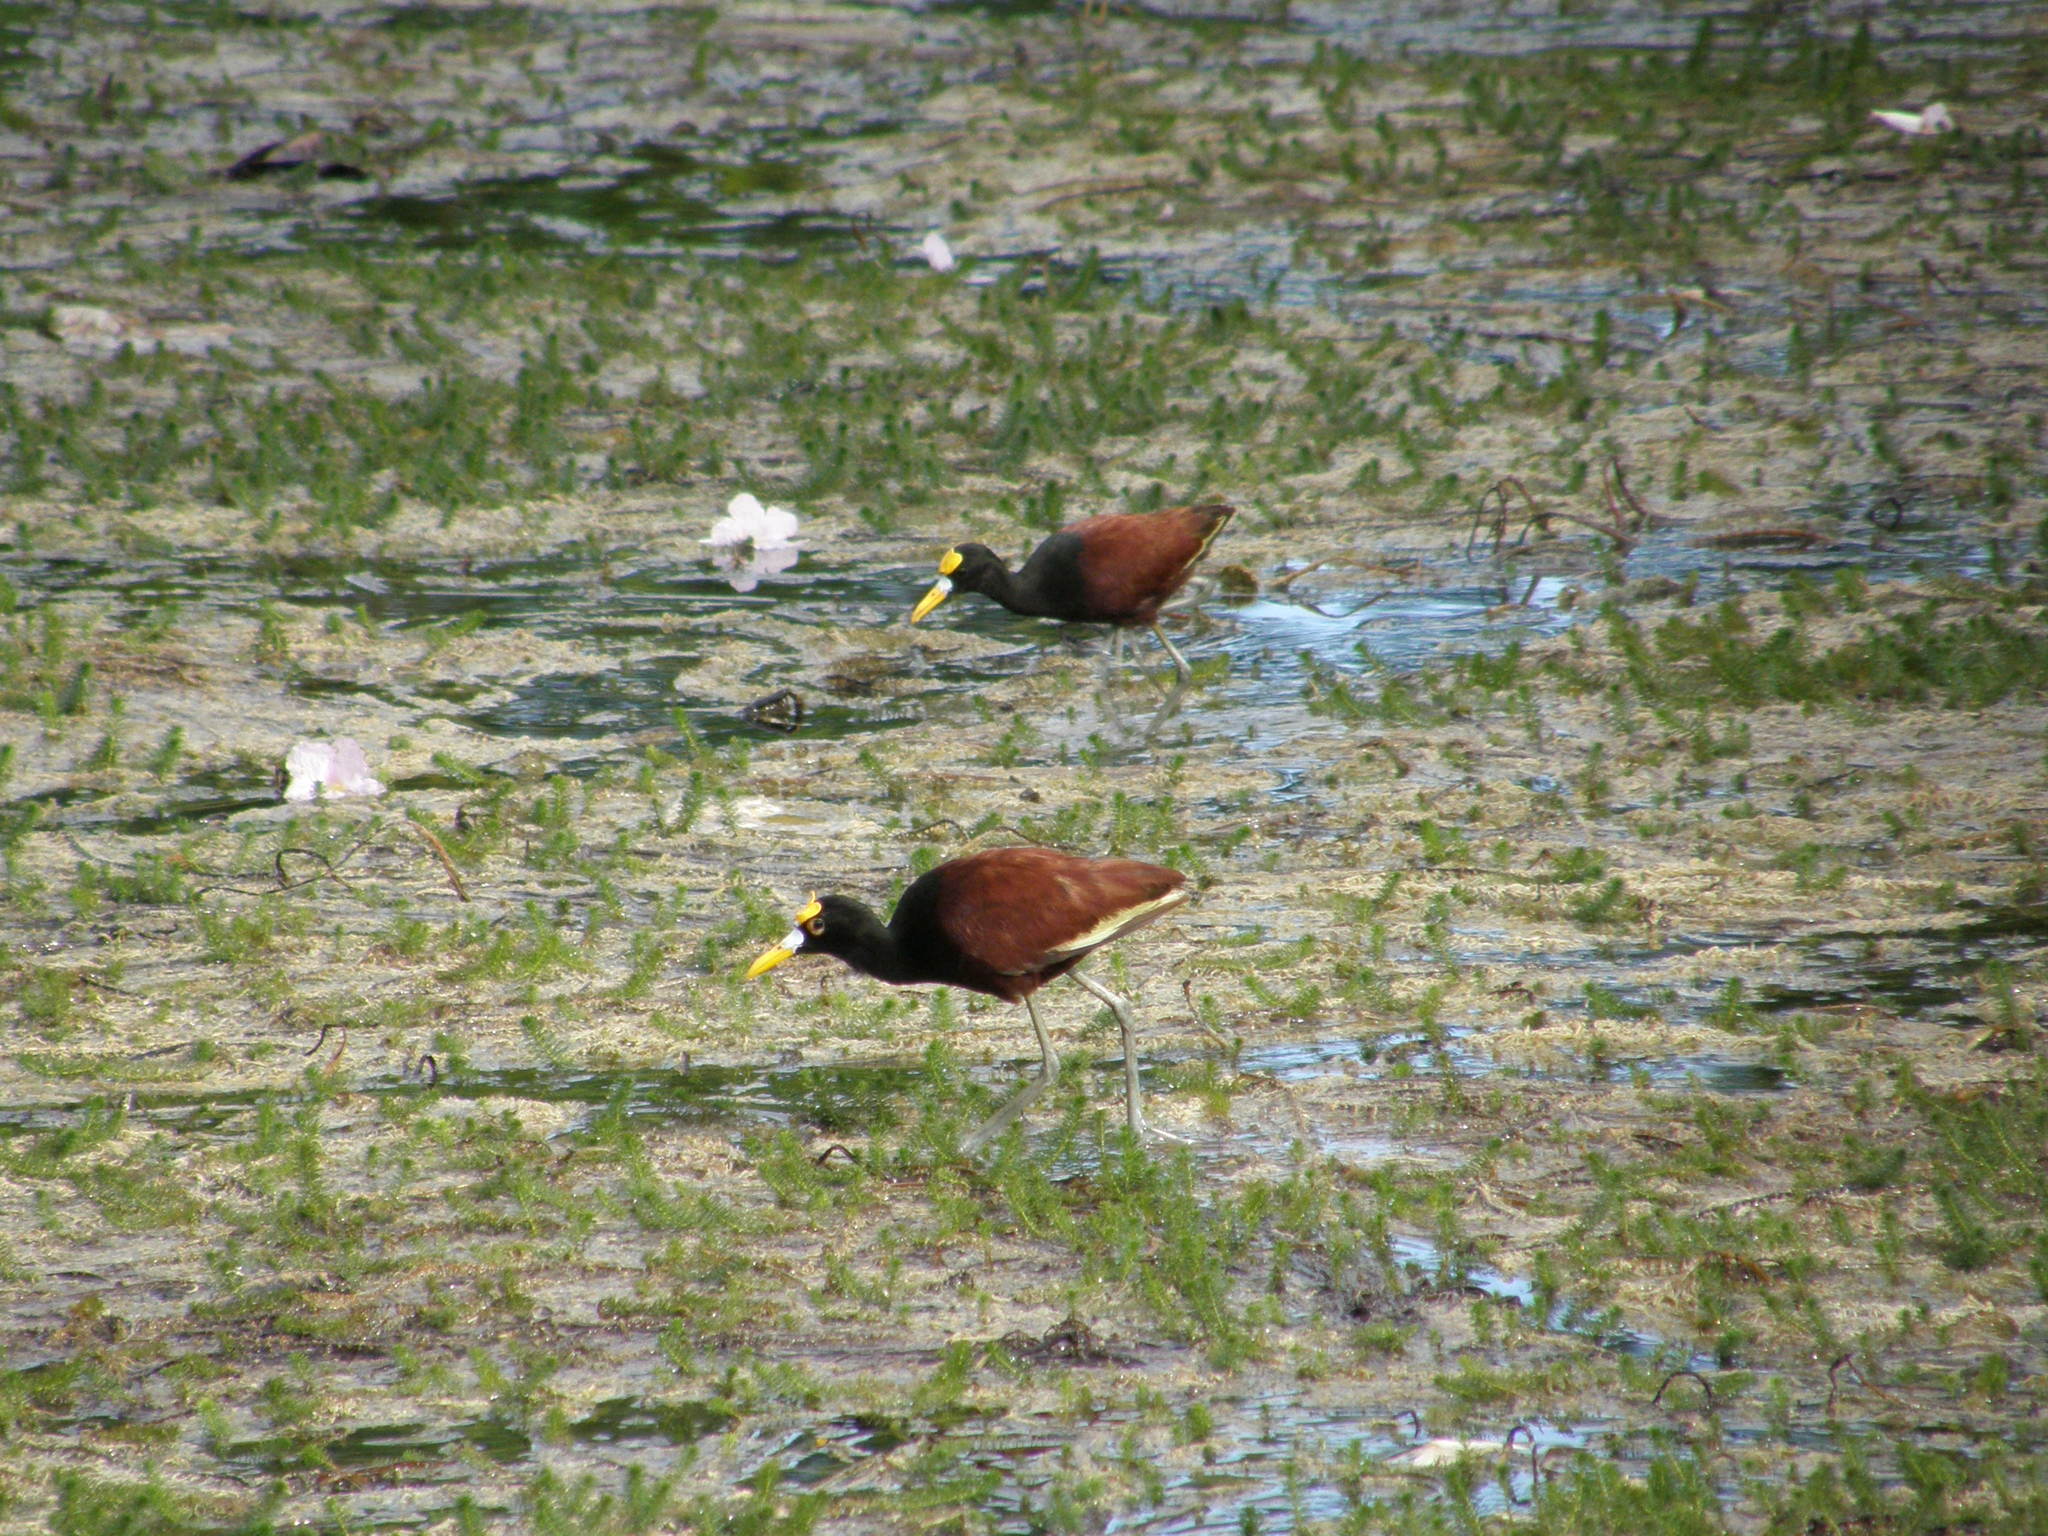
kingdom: Animalia
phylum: Chordata
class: Aves
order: Charadriiformes
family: Jacanidae
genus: Jacana
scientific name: Jacana spinosa
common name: Northern jacana
